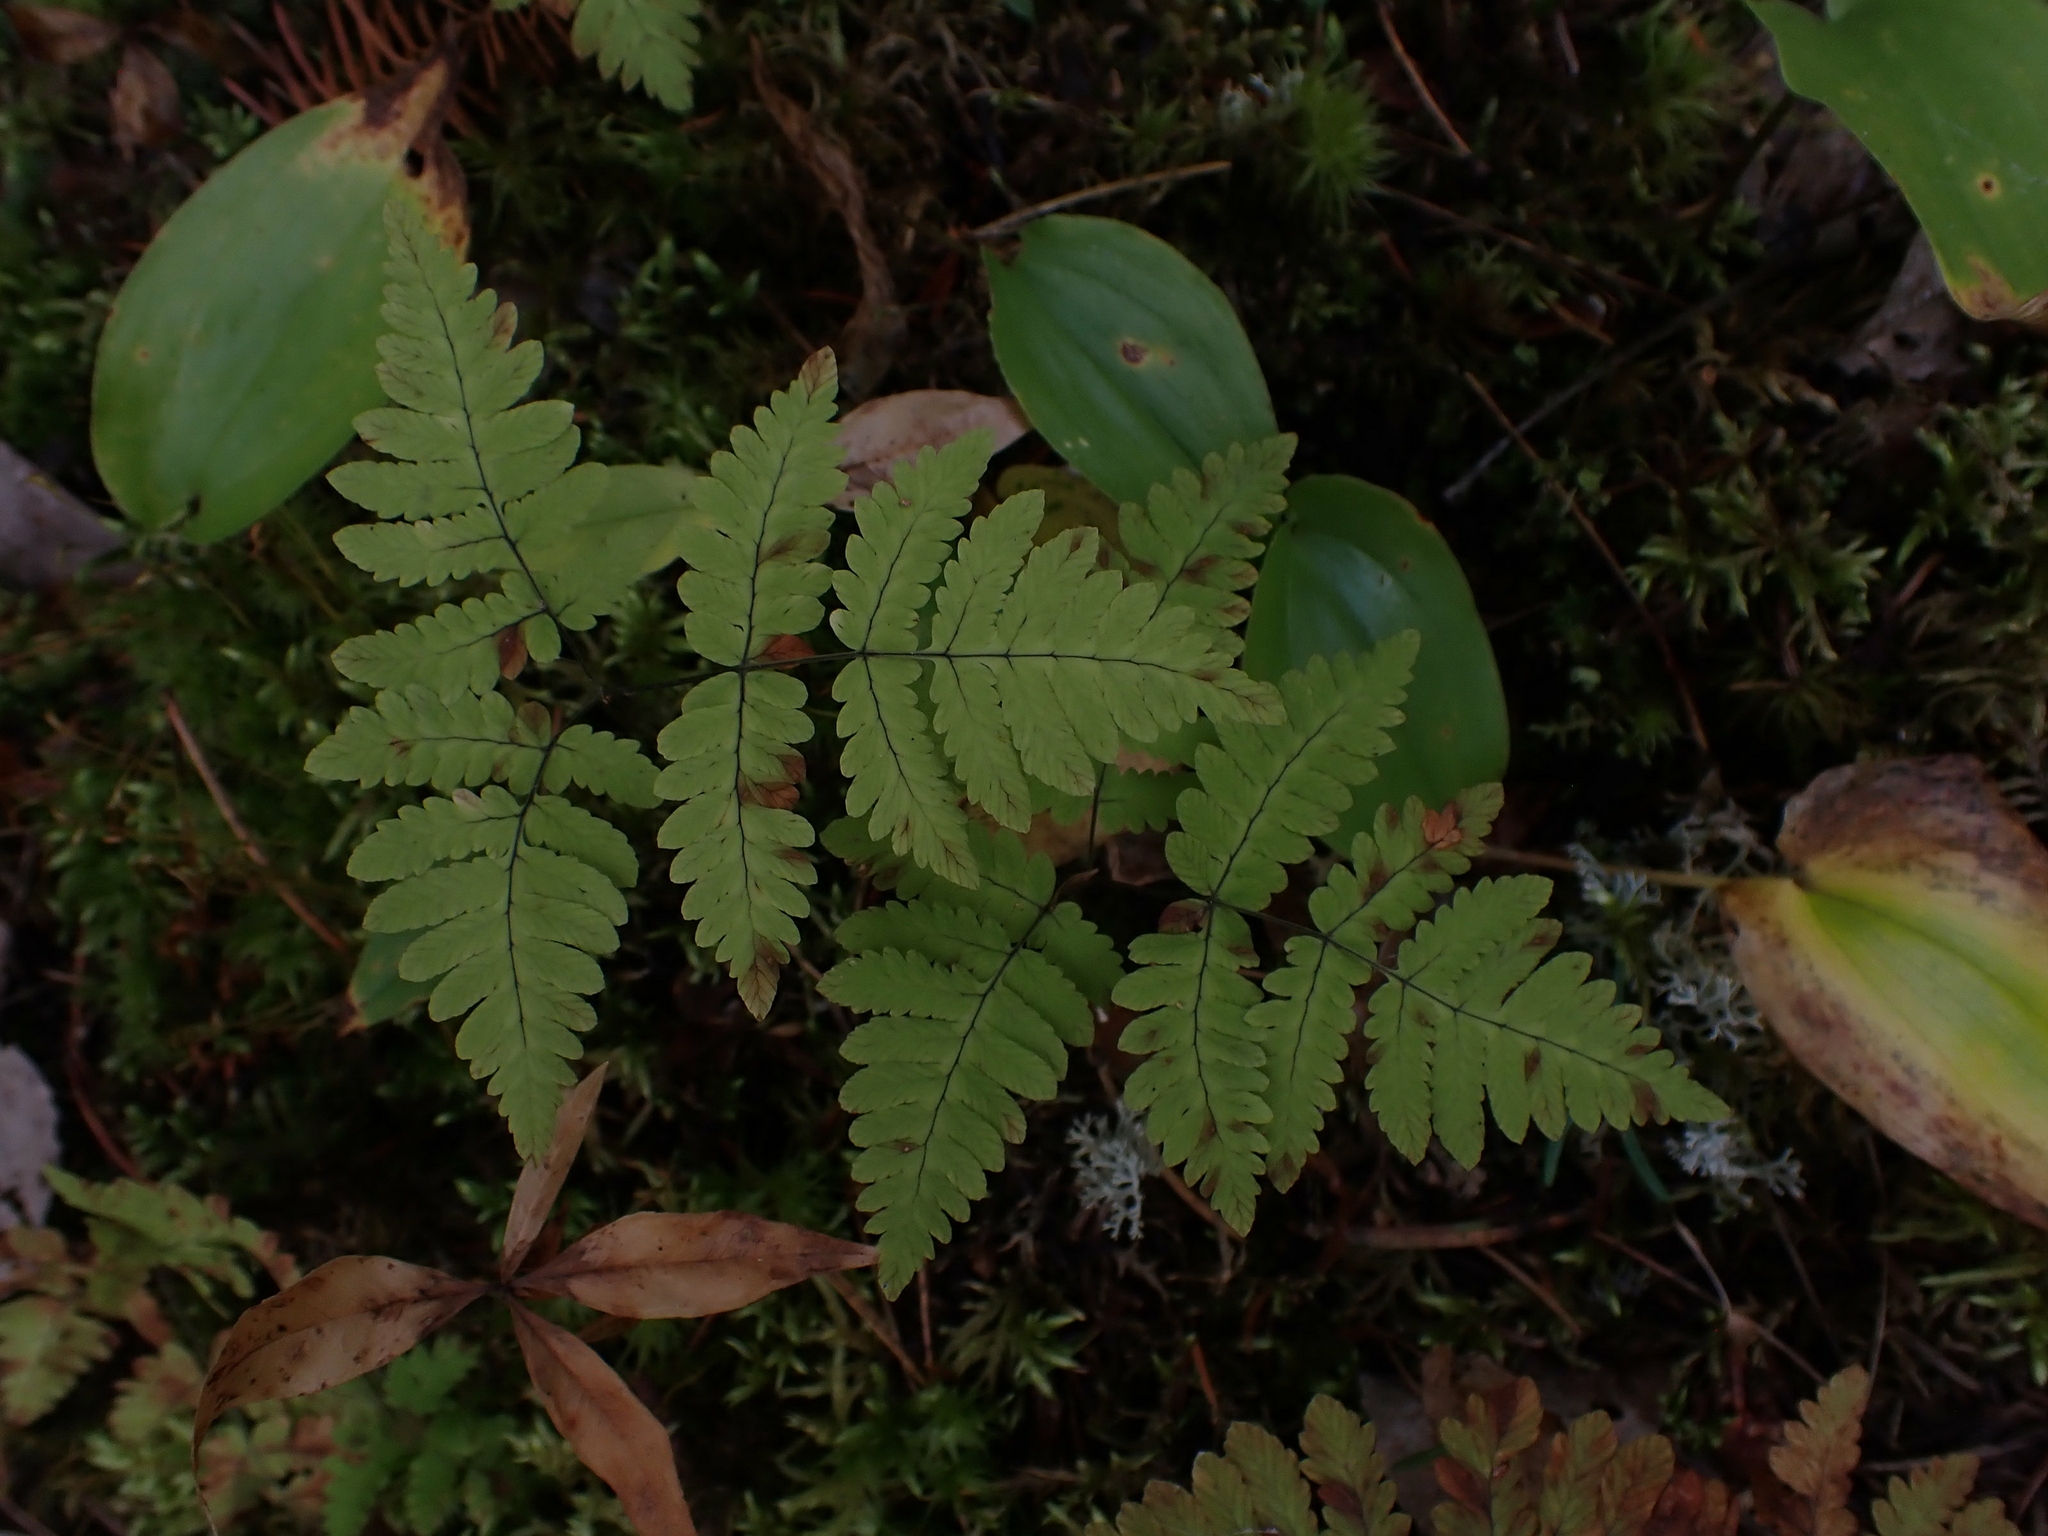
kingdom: Plantae
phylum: Tracheophyta
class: Polypodiopsida
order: Polypodiales
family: Cystopteridaceae
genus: Gymnocarpium
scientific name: Gymnocarpium dryopteris
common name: Oak fern
